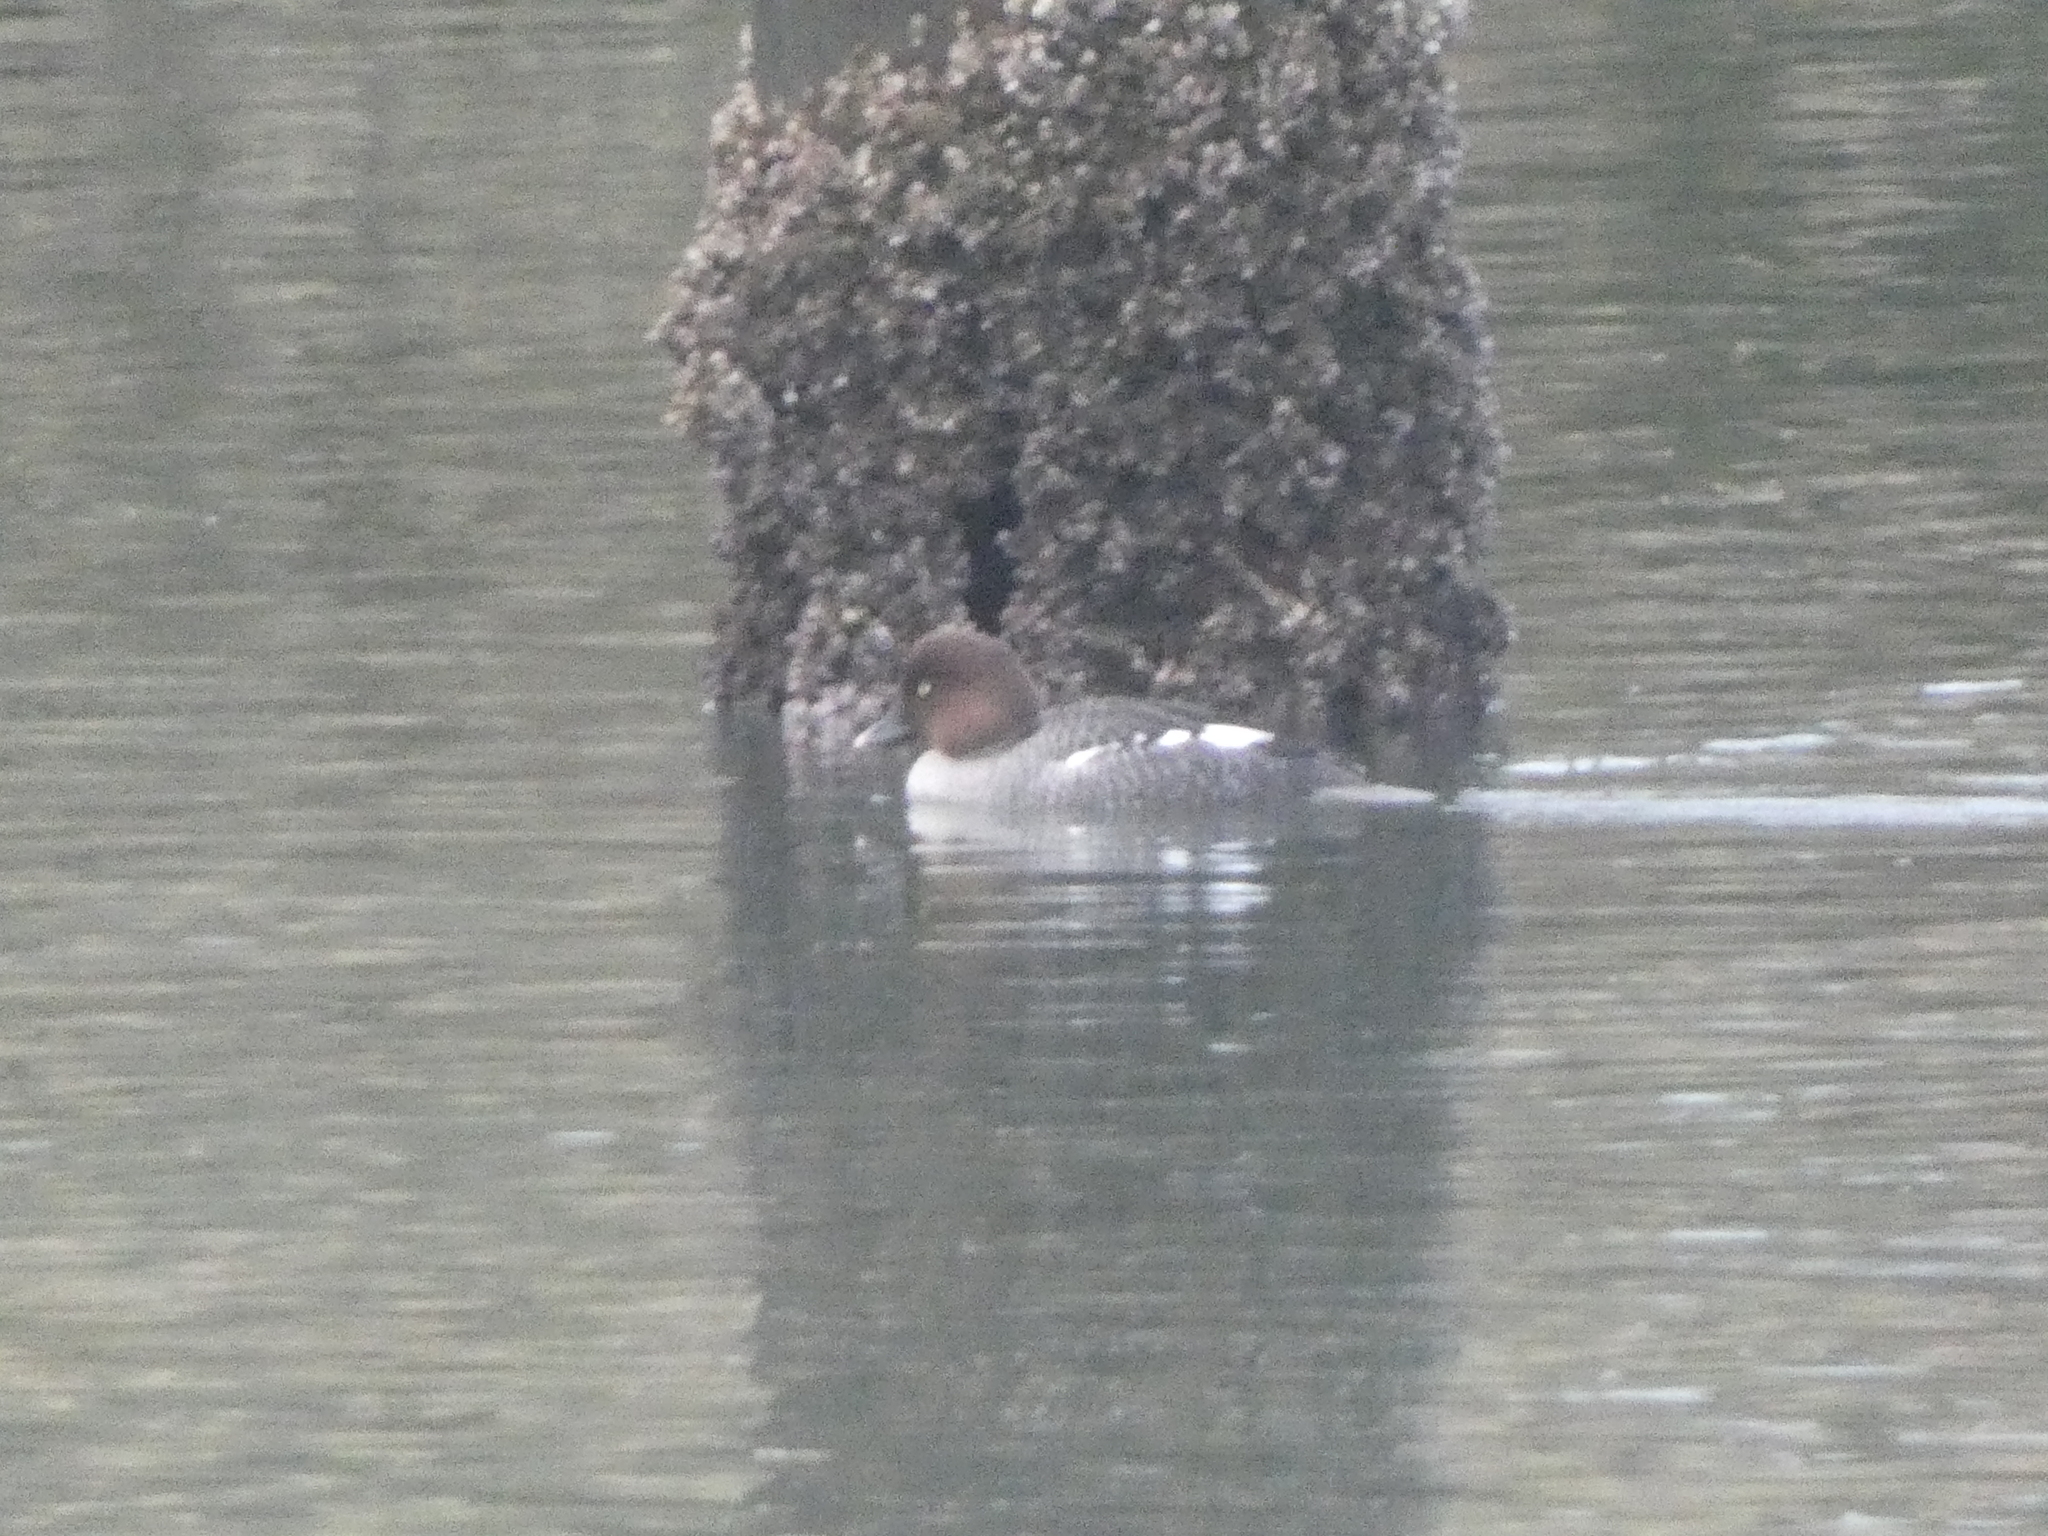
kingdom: Animalia
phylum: Chordata
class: Aves
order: Anseriformes
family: Anatidae
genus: Bucephala
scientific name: Bucephala clangula
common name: Common goldeneye
